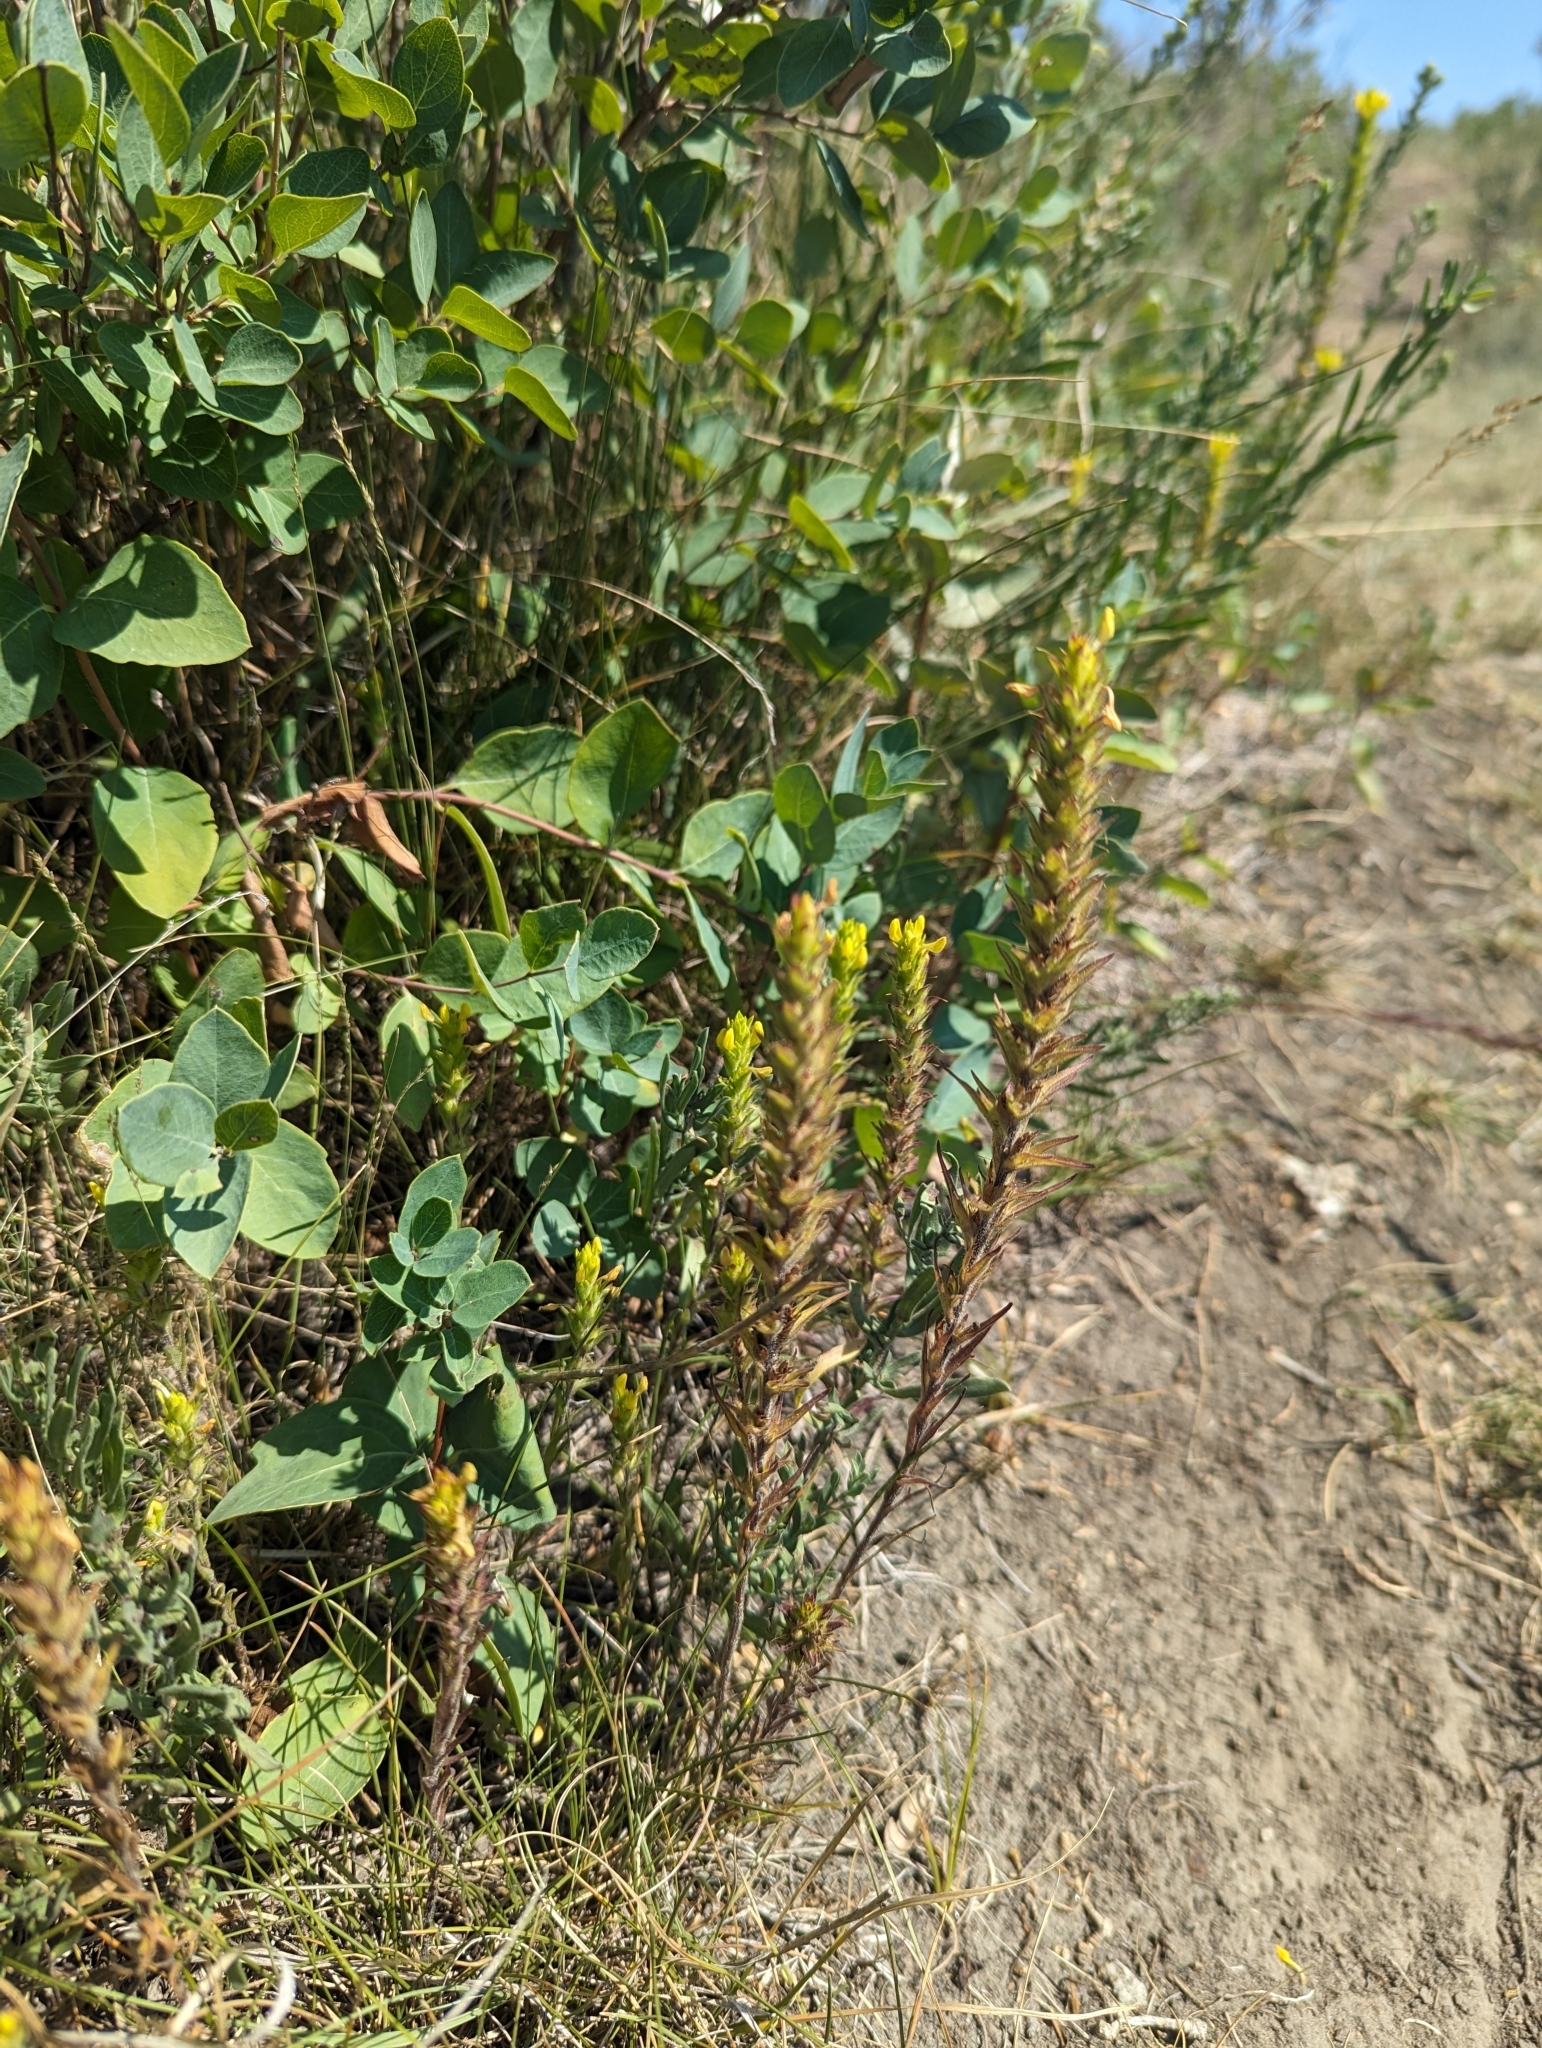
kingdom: Plantae
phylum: Tracheophyta
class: Magnoliopsida
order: Lamiales
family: Orobanchaceae
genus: Orthocarpus
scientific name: Orthocarpus luteus
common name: Golden-tongue owl's-clover
